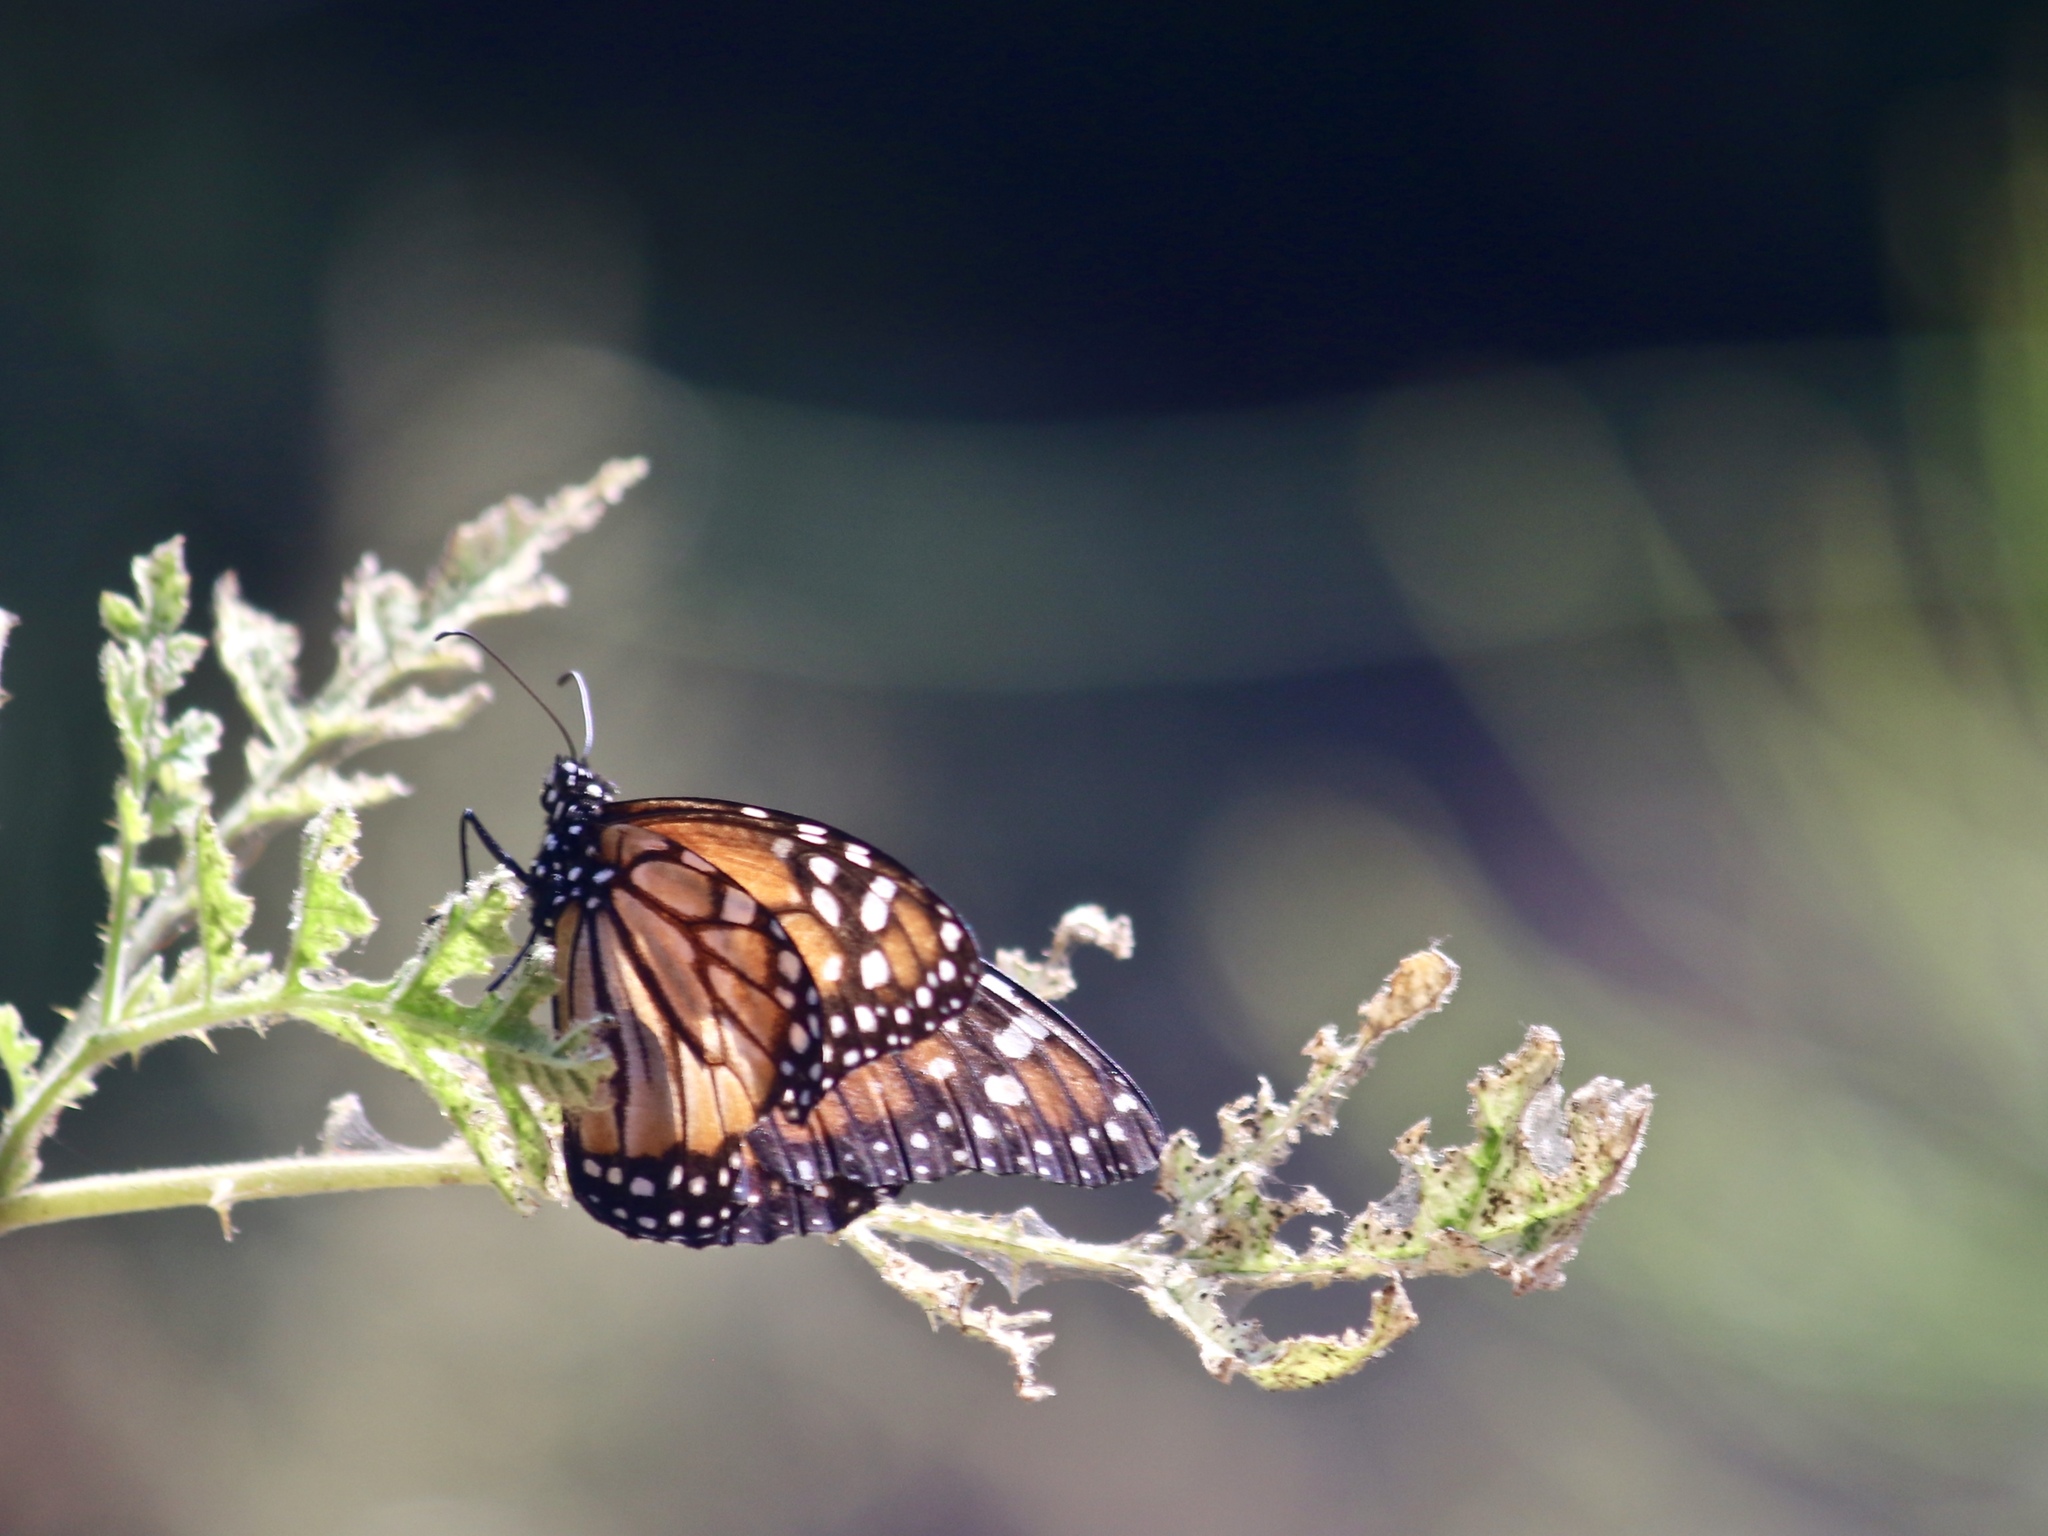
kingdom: Animalia
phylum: Arthropoda
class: Insecta
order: Lepidoptera
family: Nymphalidae
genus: Danaus
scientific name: Danaus erippus
